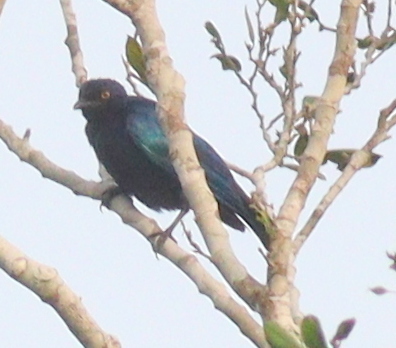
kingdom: Animalia
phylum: Chordata
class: Aves
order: Passeriformes
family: Sturnidae
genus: Hylopsar
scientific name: Hylopsar cupreocauda
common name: Copper-tailed starling
